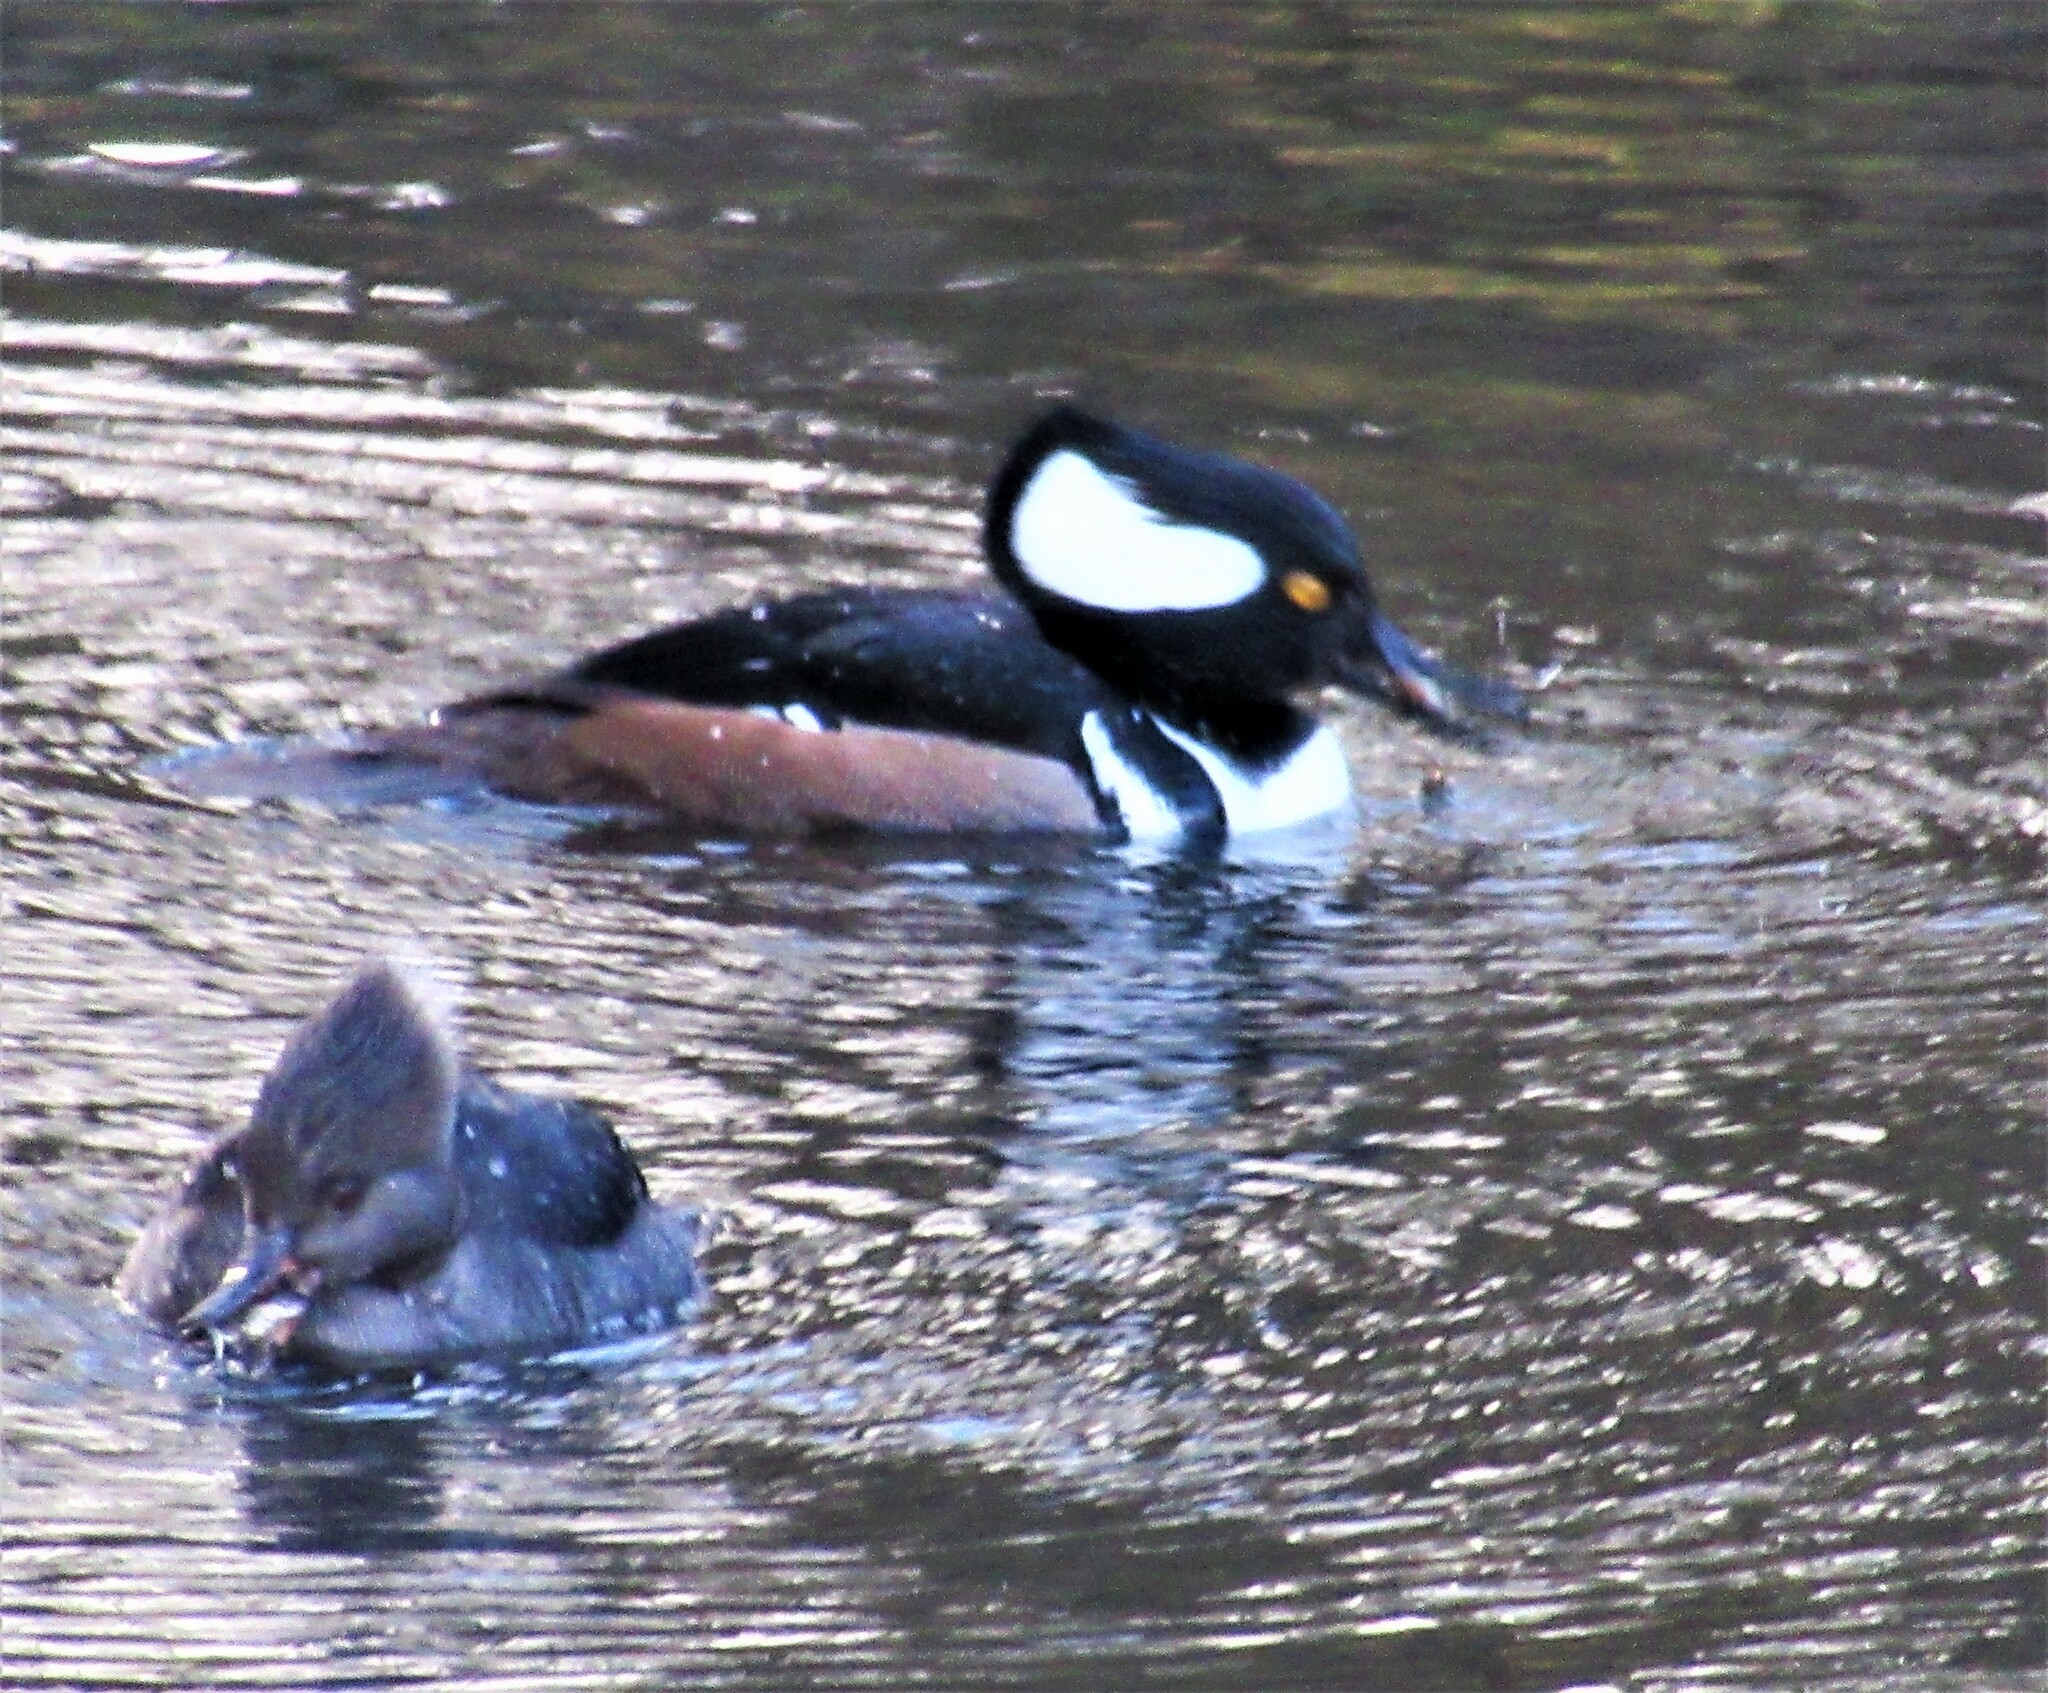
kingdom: Animalia
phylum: Chordata
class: Aves
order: Anseriformes
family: Anatidae
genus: Lophodytes
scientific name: Lophodytes cucullatus
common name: Hooded merganser
